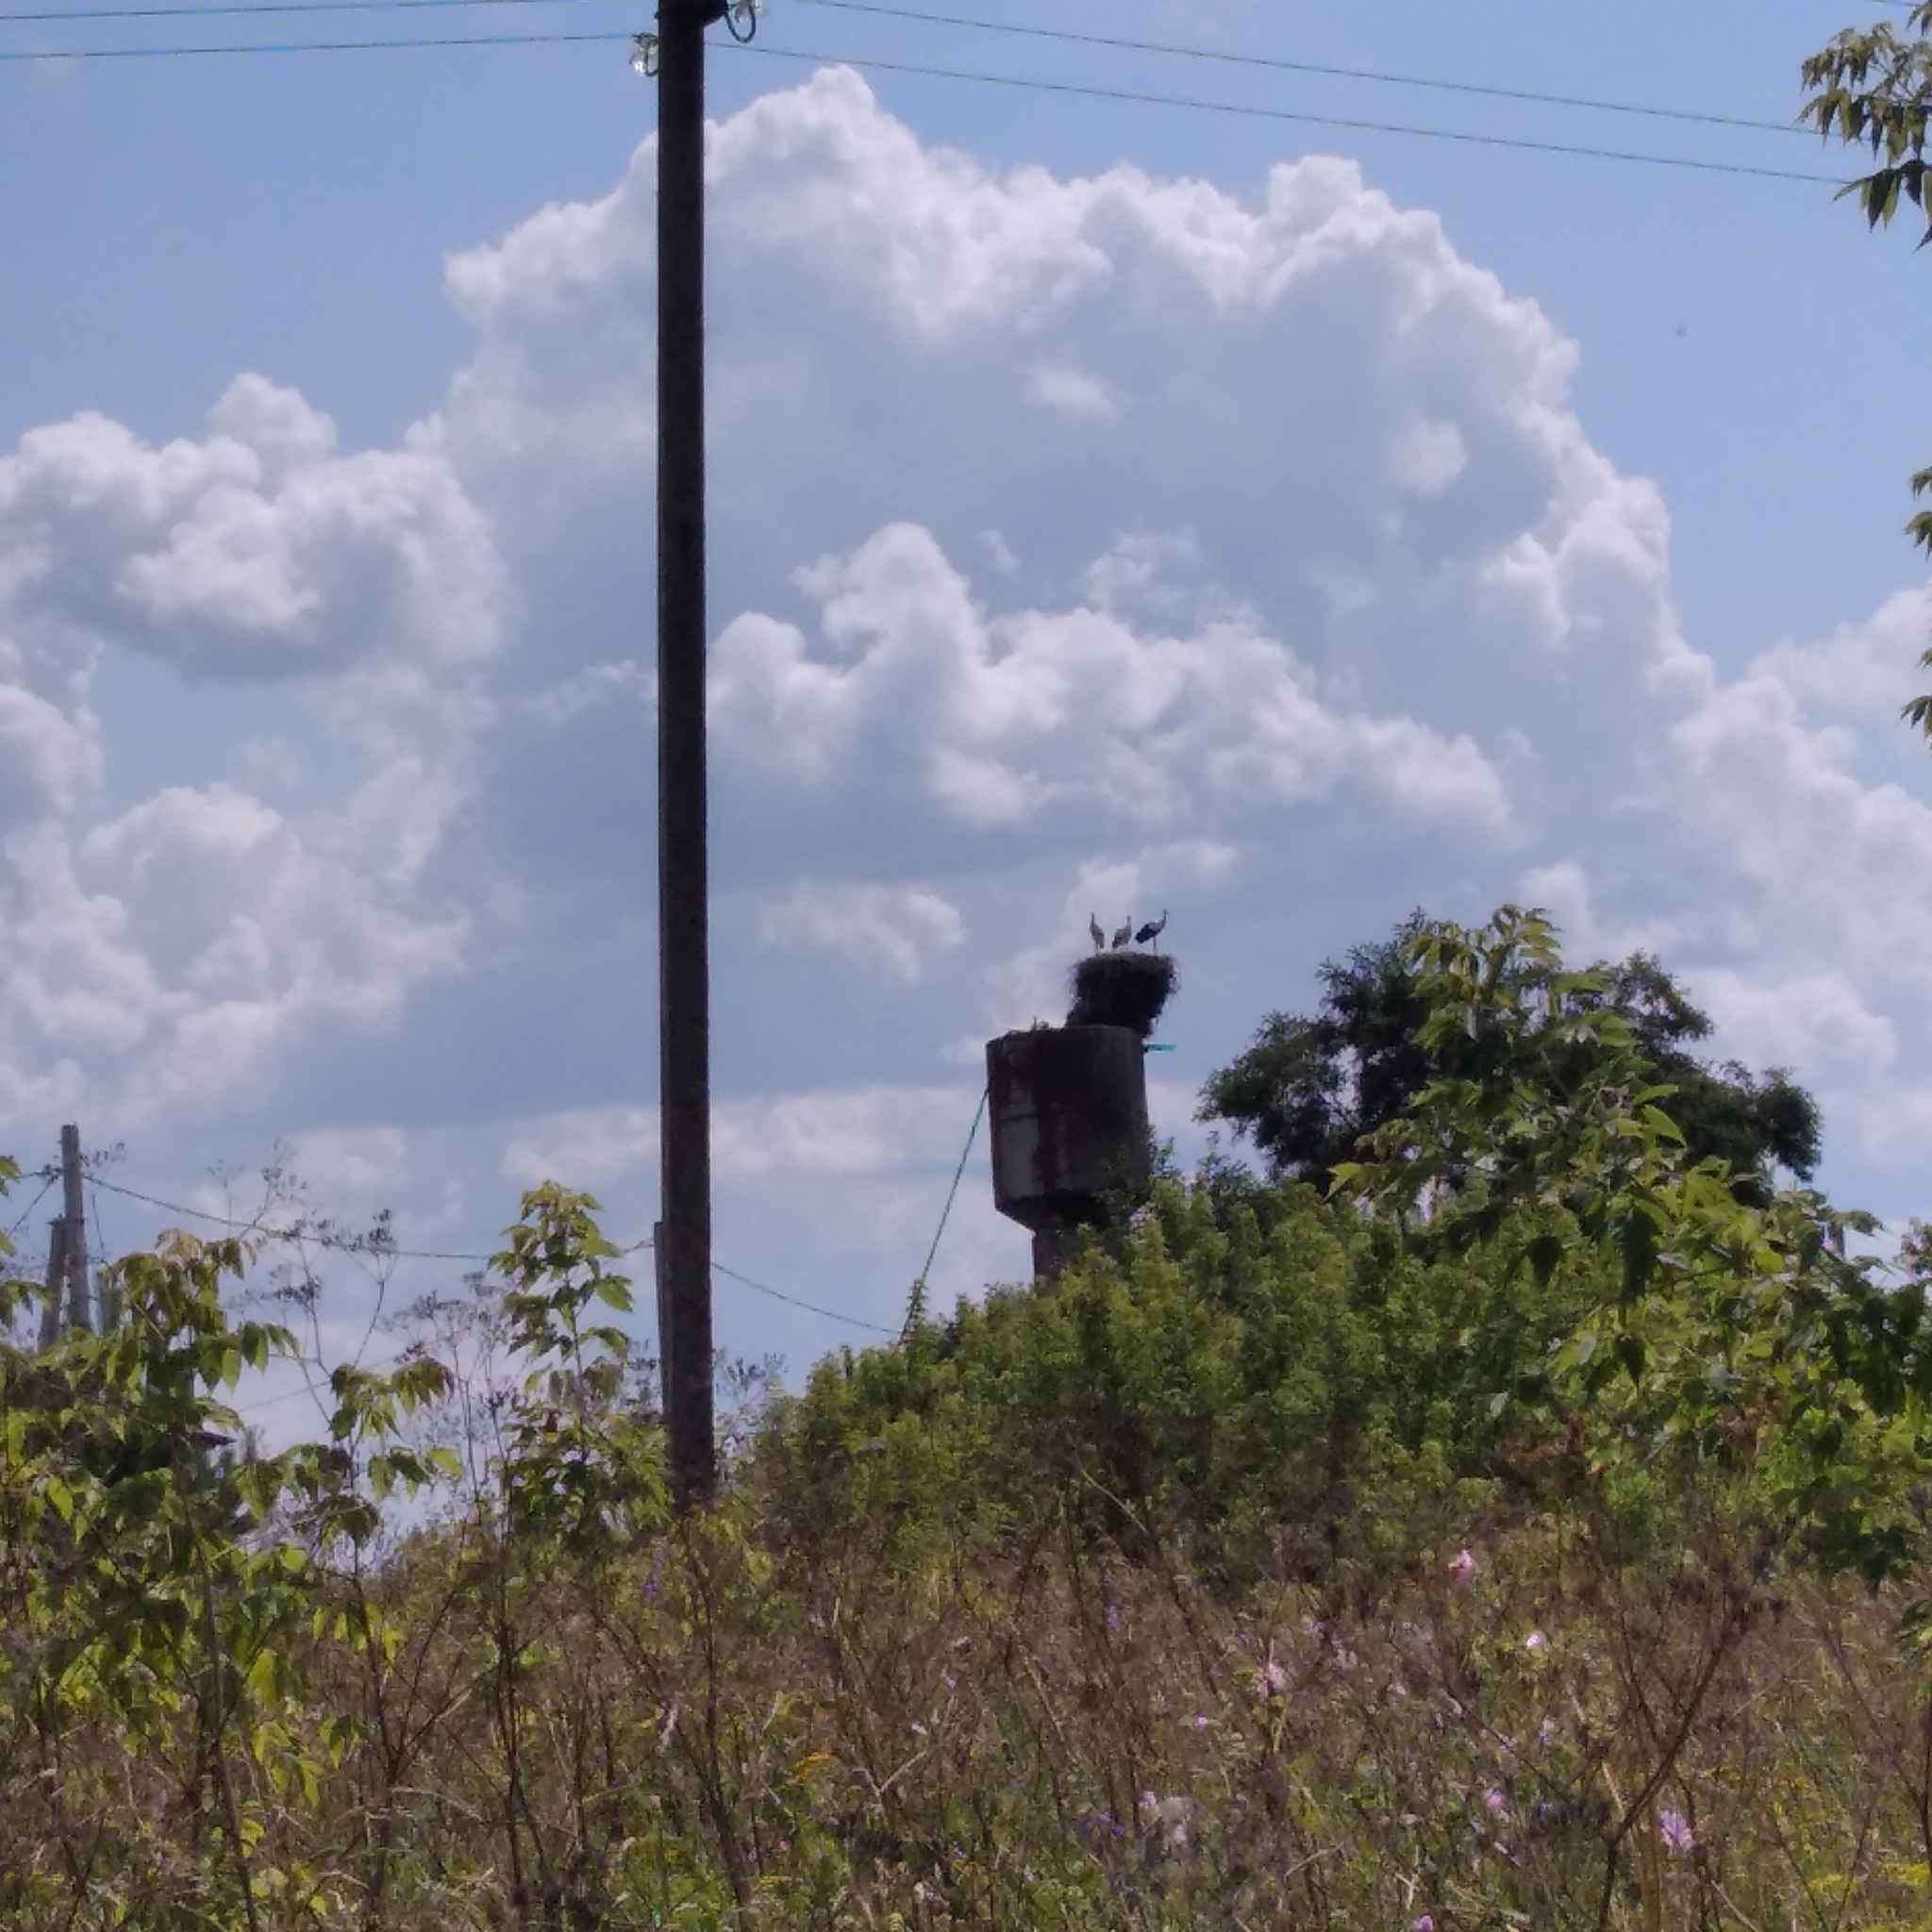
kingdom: Animalia
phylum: Chordata
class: Aves
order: Ciconiiformes
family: Ciconiidae
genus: Ciconia
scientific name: Ciconia ciconia
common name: White stork
